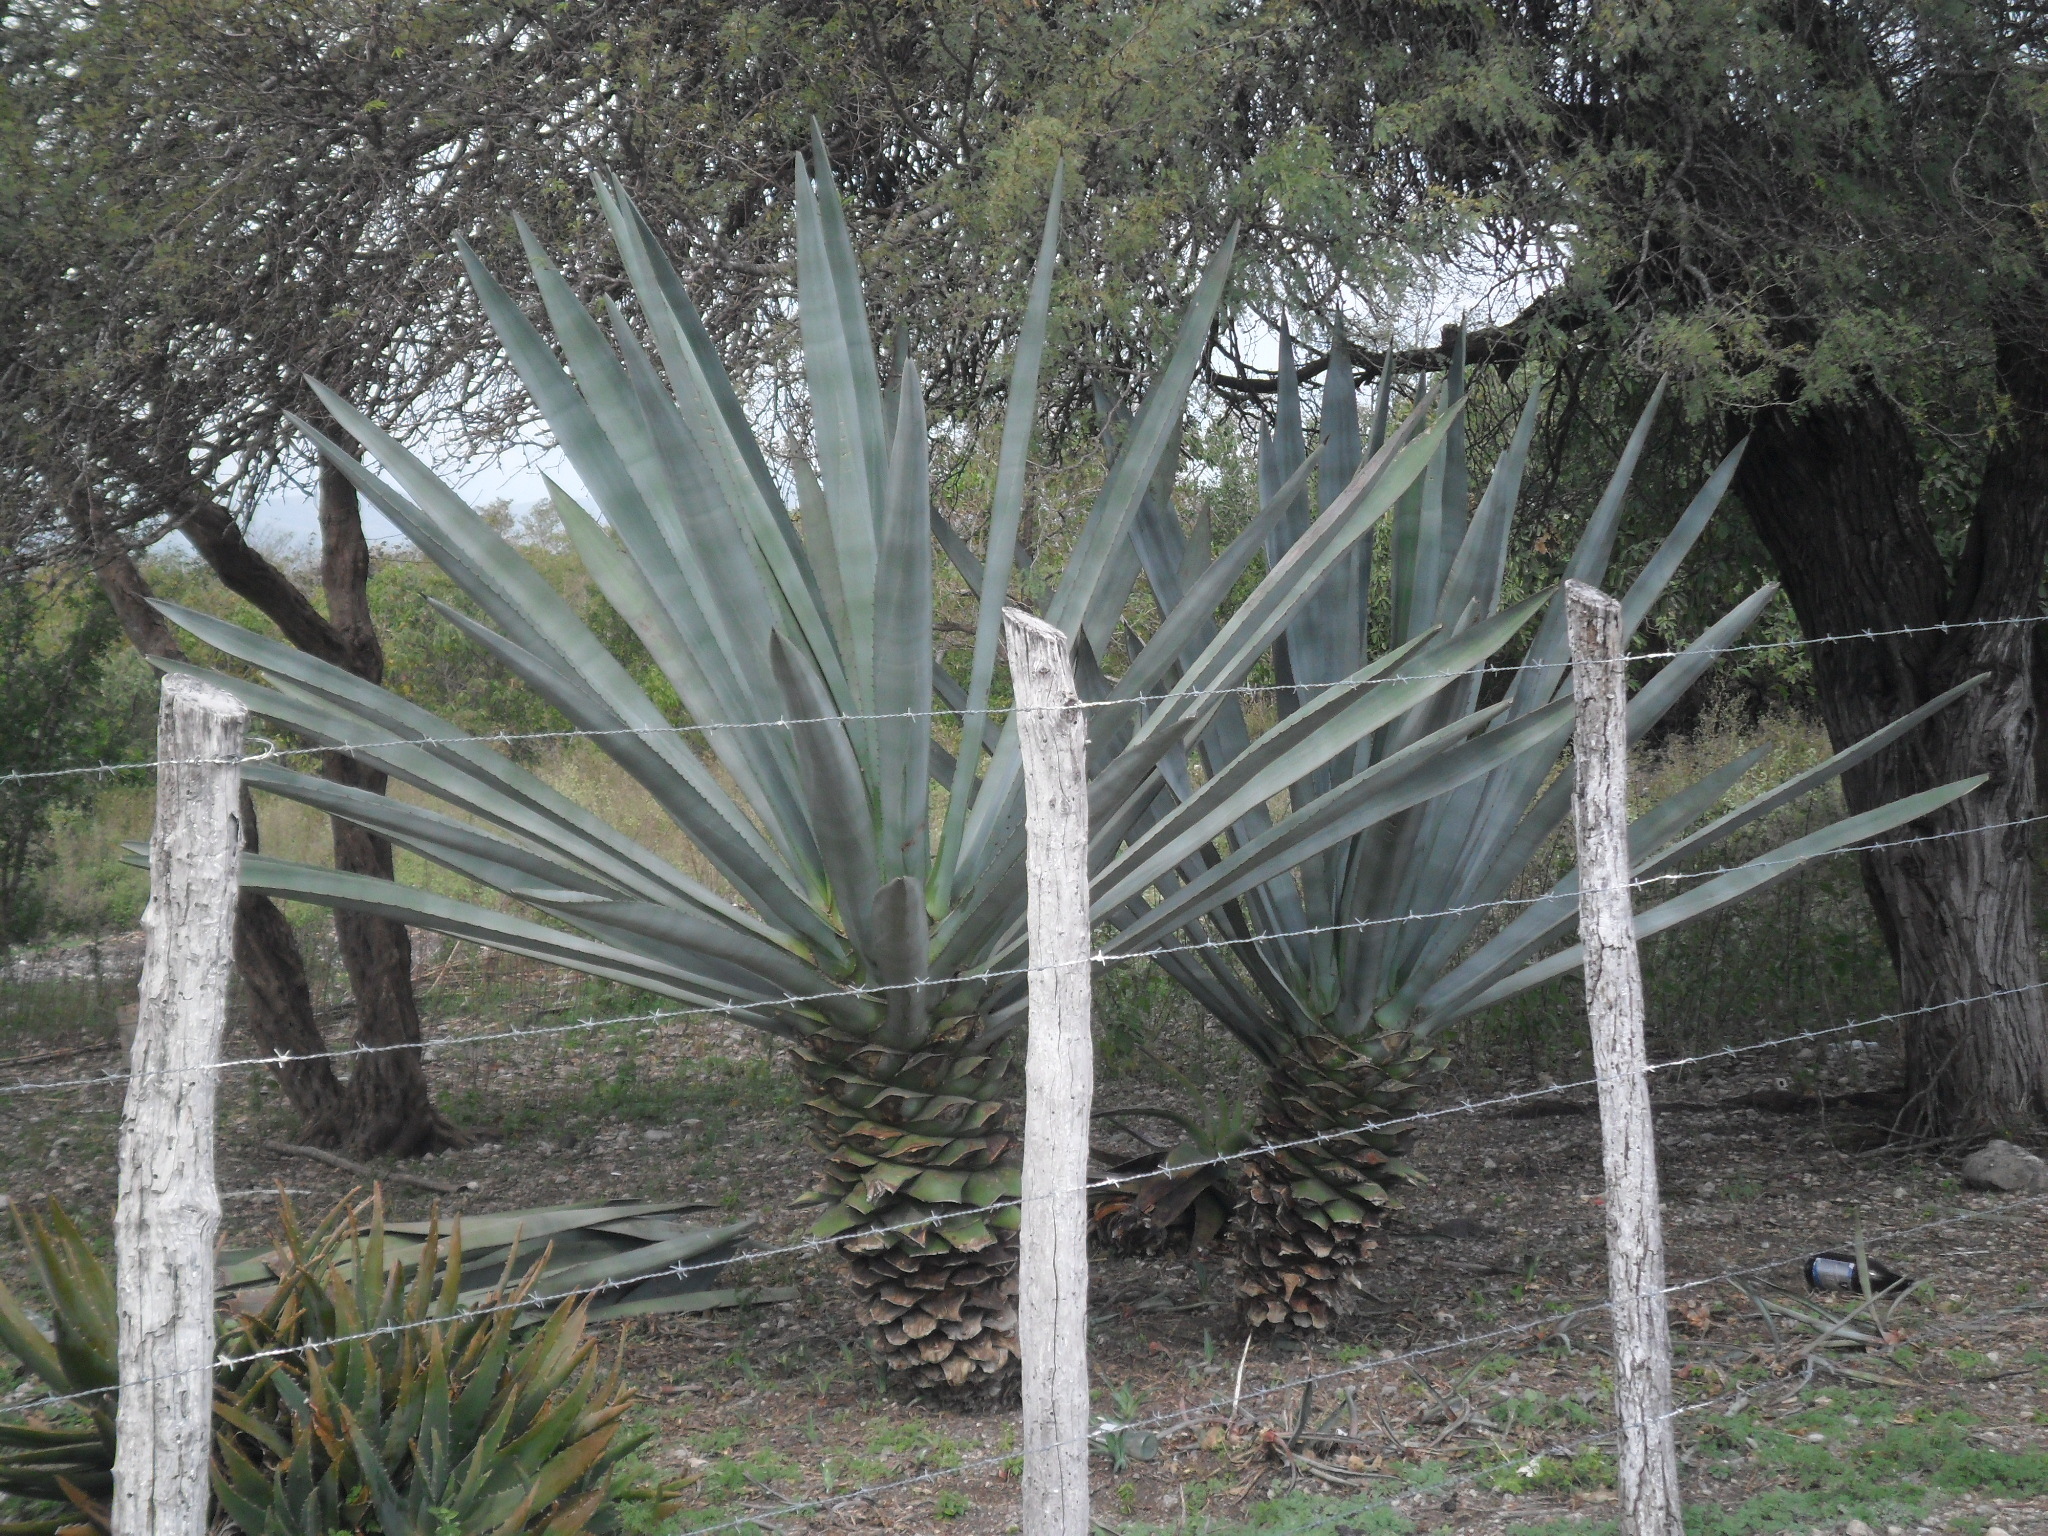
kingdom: Plantae
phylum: Tracheophyta
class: Liliopsida
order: Asparagales
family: Asparagaceae
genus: Agave
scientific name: Agave fourcroydes
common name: Henequen
